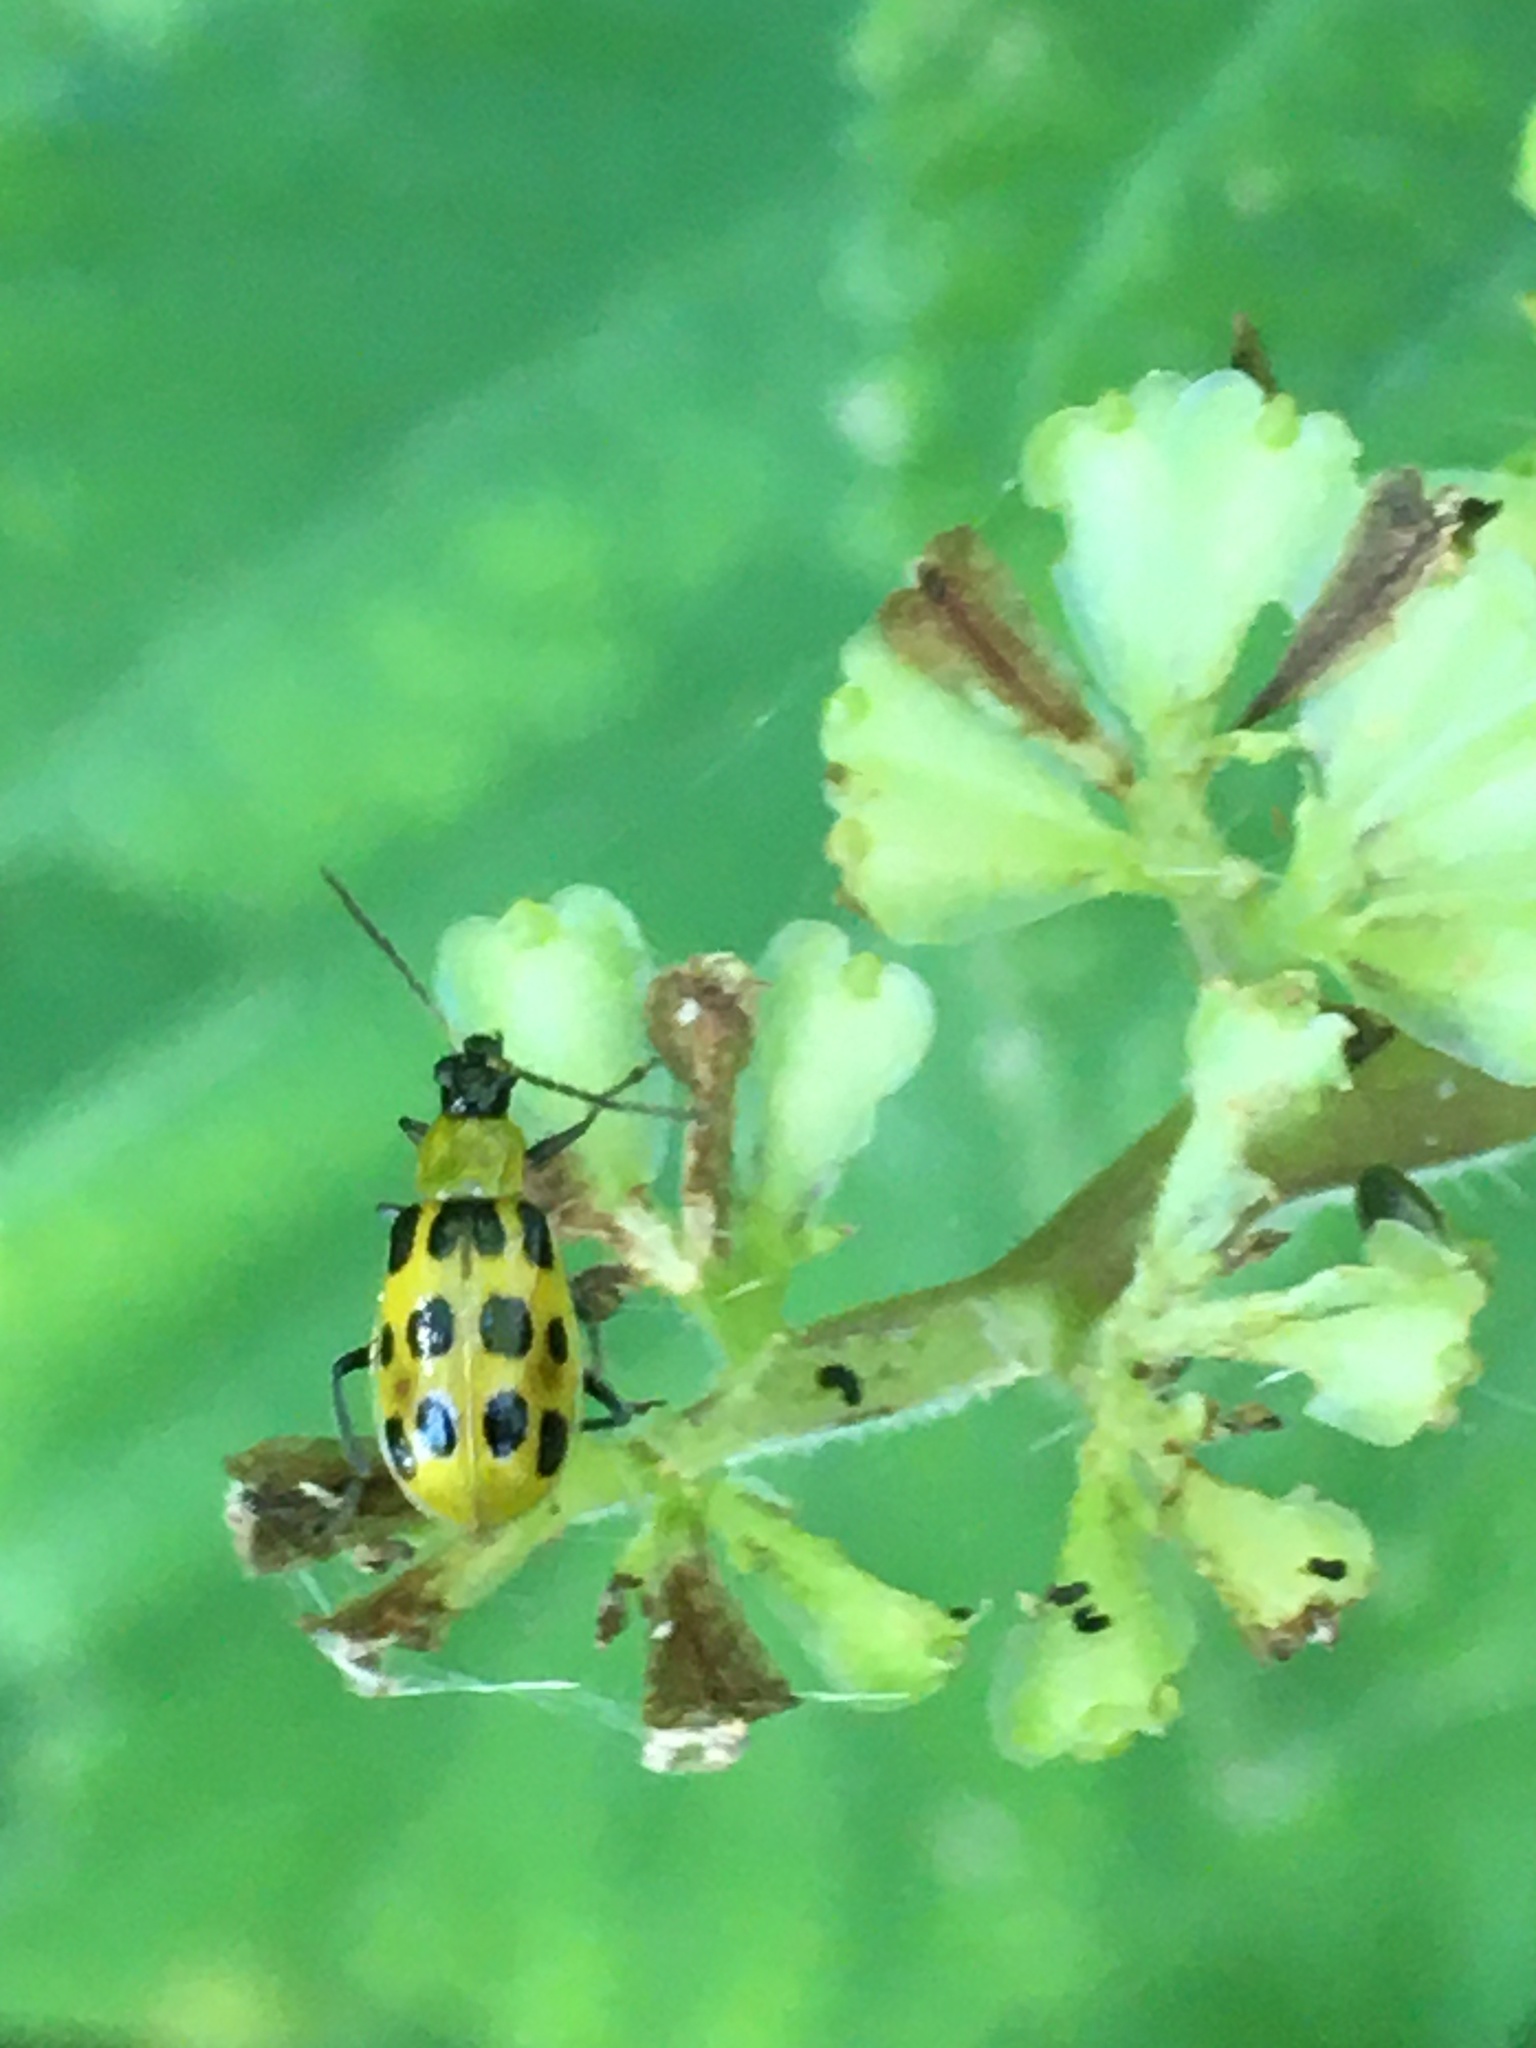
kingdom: Animalia
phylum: Arthropoda
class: Insecta
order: Coleoptera
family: Chrysomelidae
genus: Diabrotica
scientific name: Diabrotica undecimpunctata
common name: Spotted cucumber beetle
